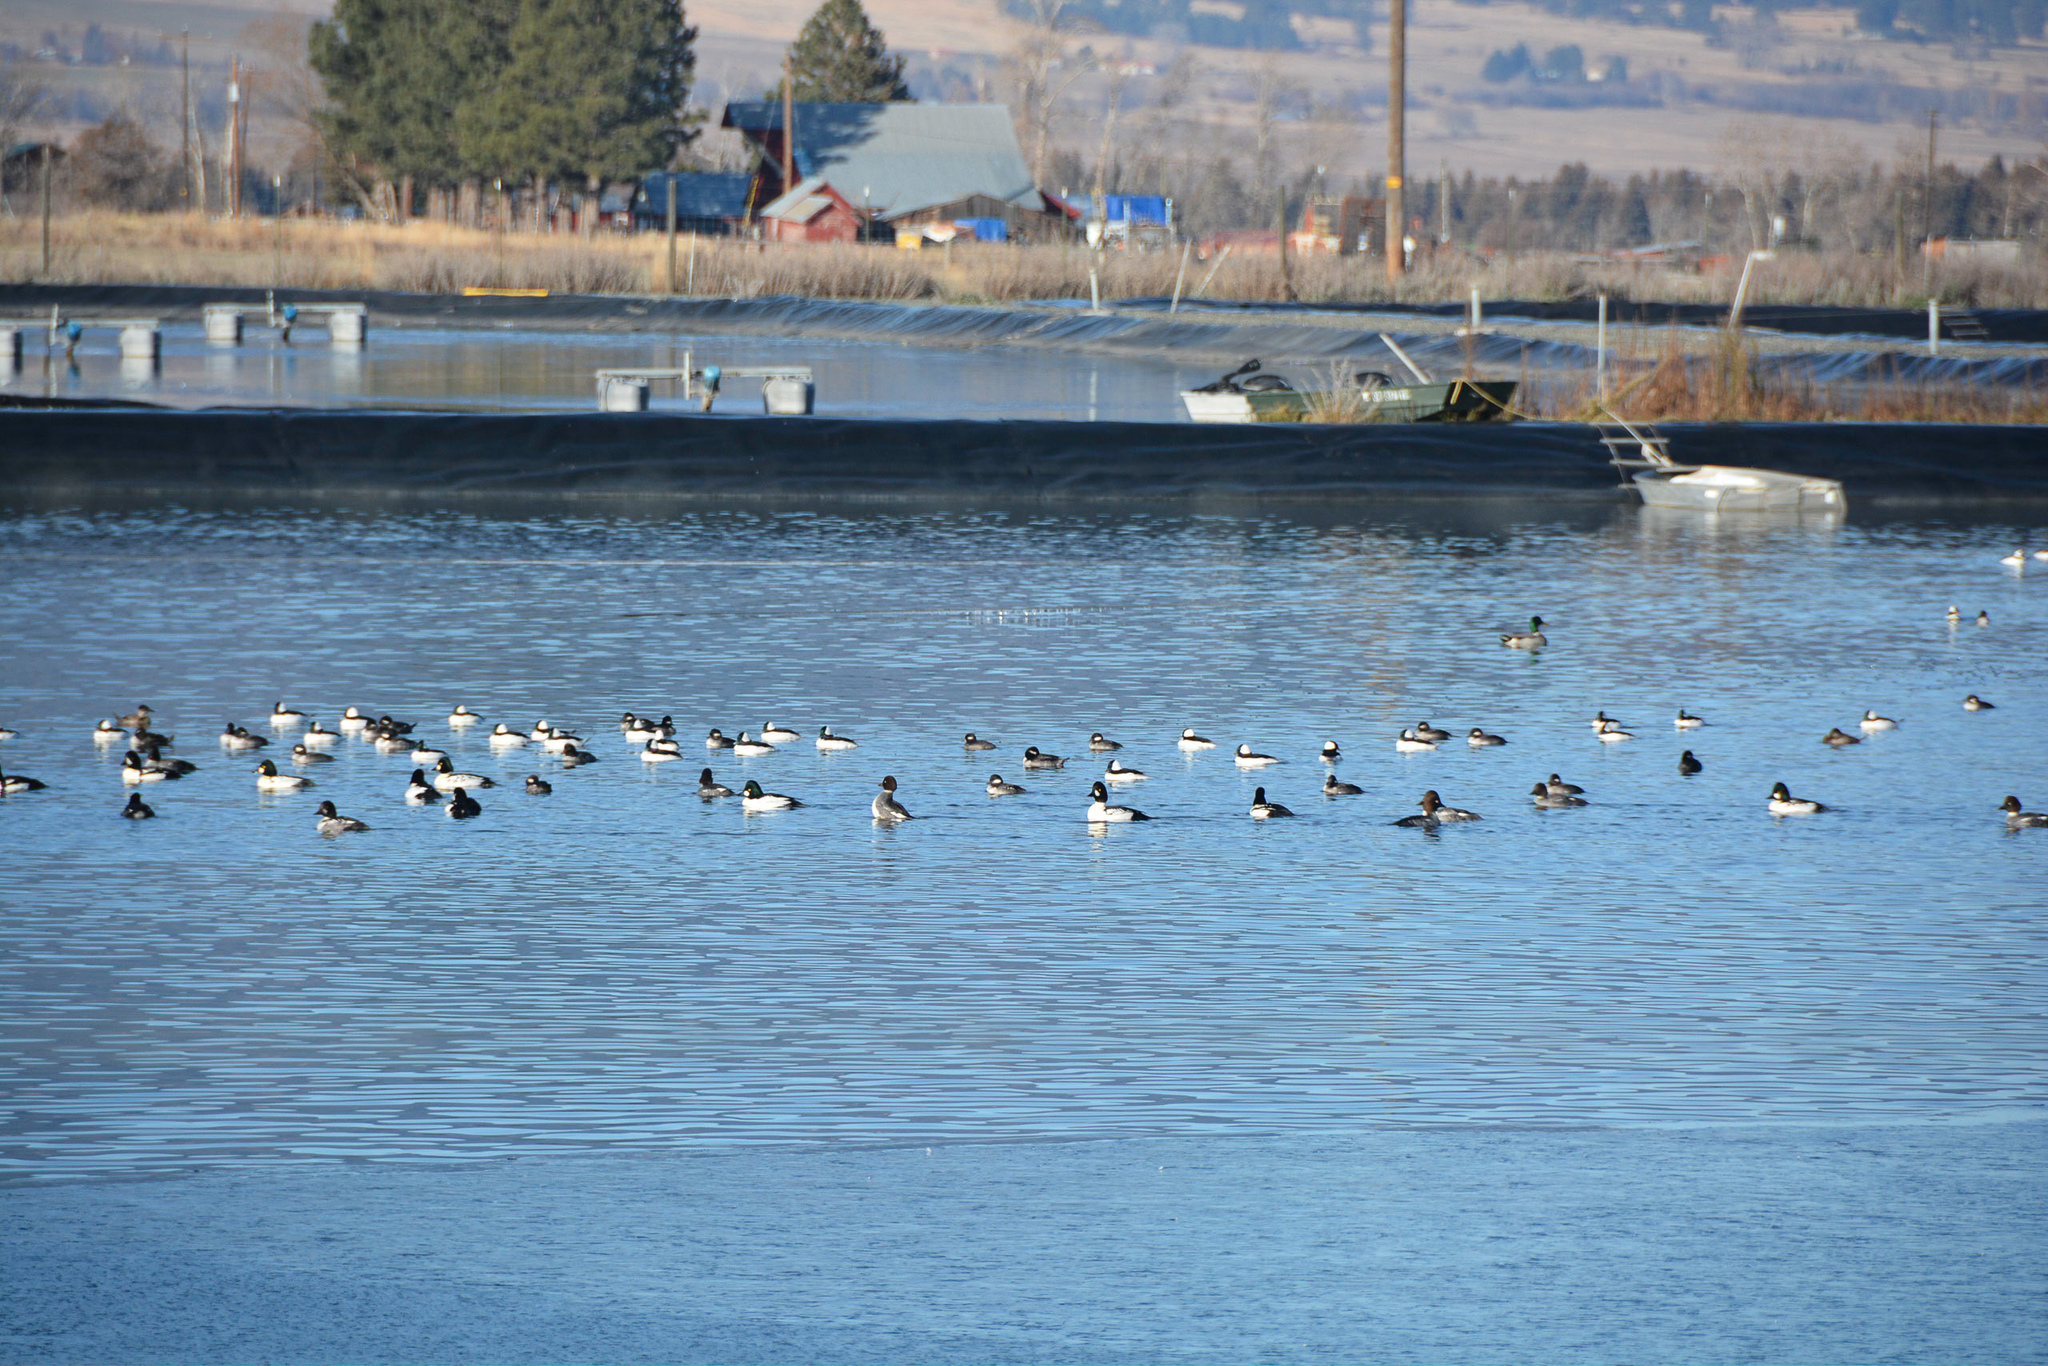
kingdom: Animalia
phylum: Chordata
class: Aves
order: Anseriformes
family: Anatidae
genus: Bucephala
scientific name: Bucephala albeola
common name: Bufflehead
